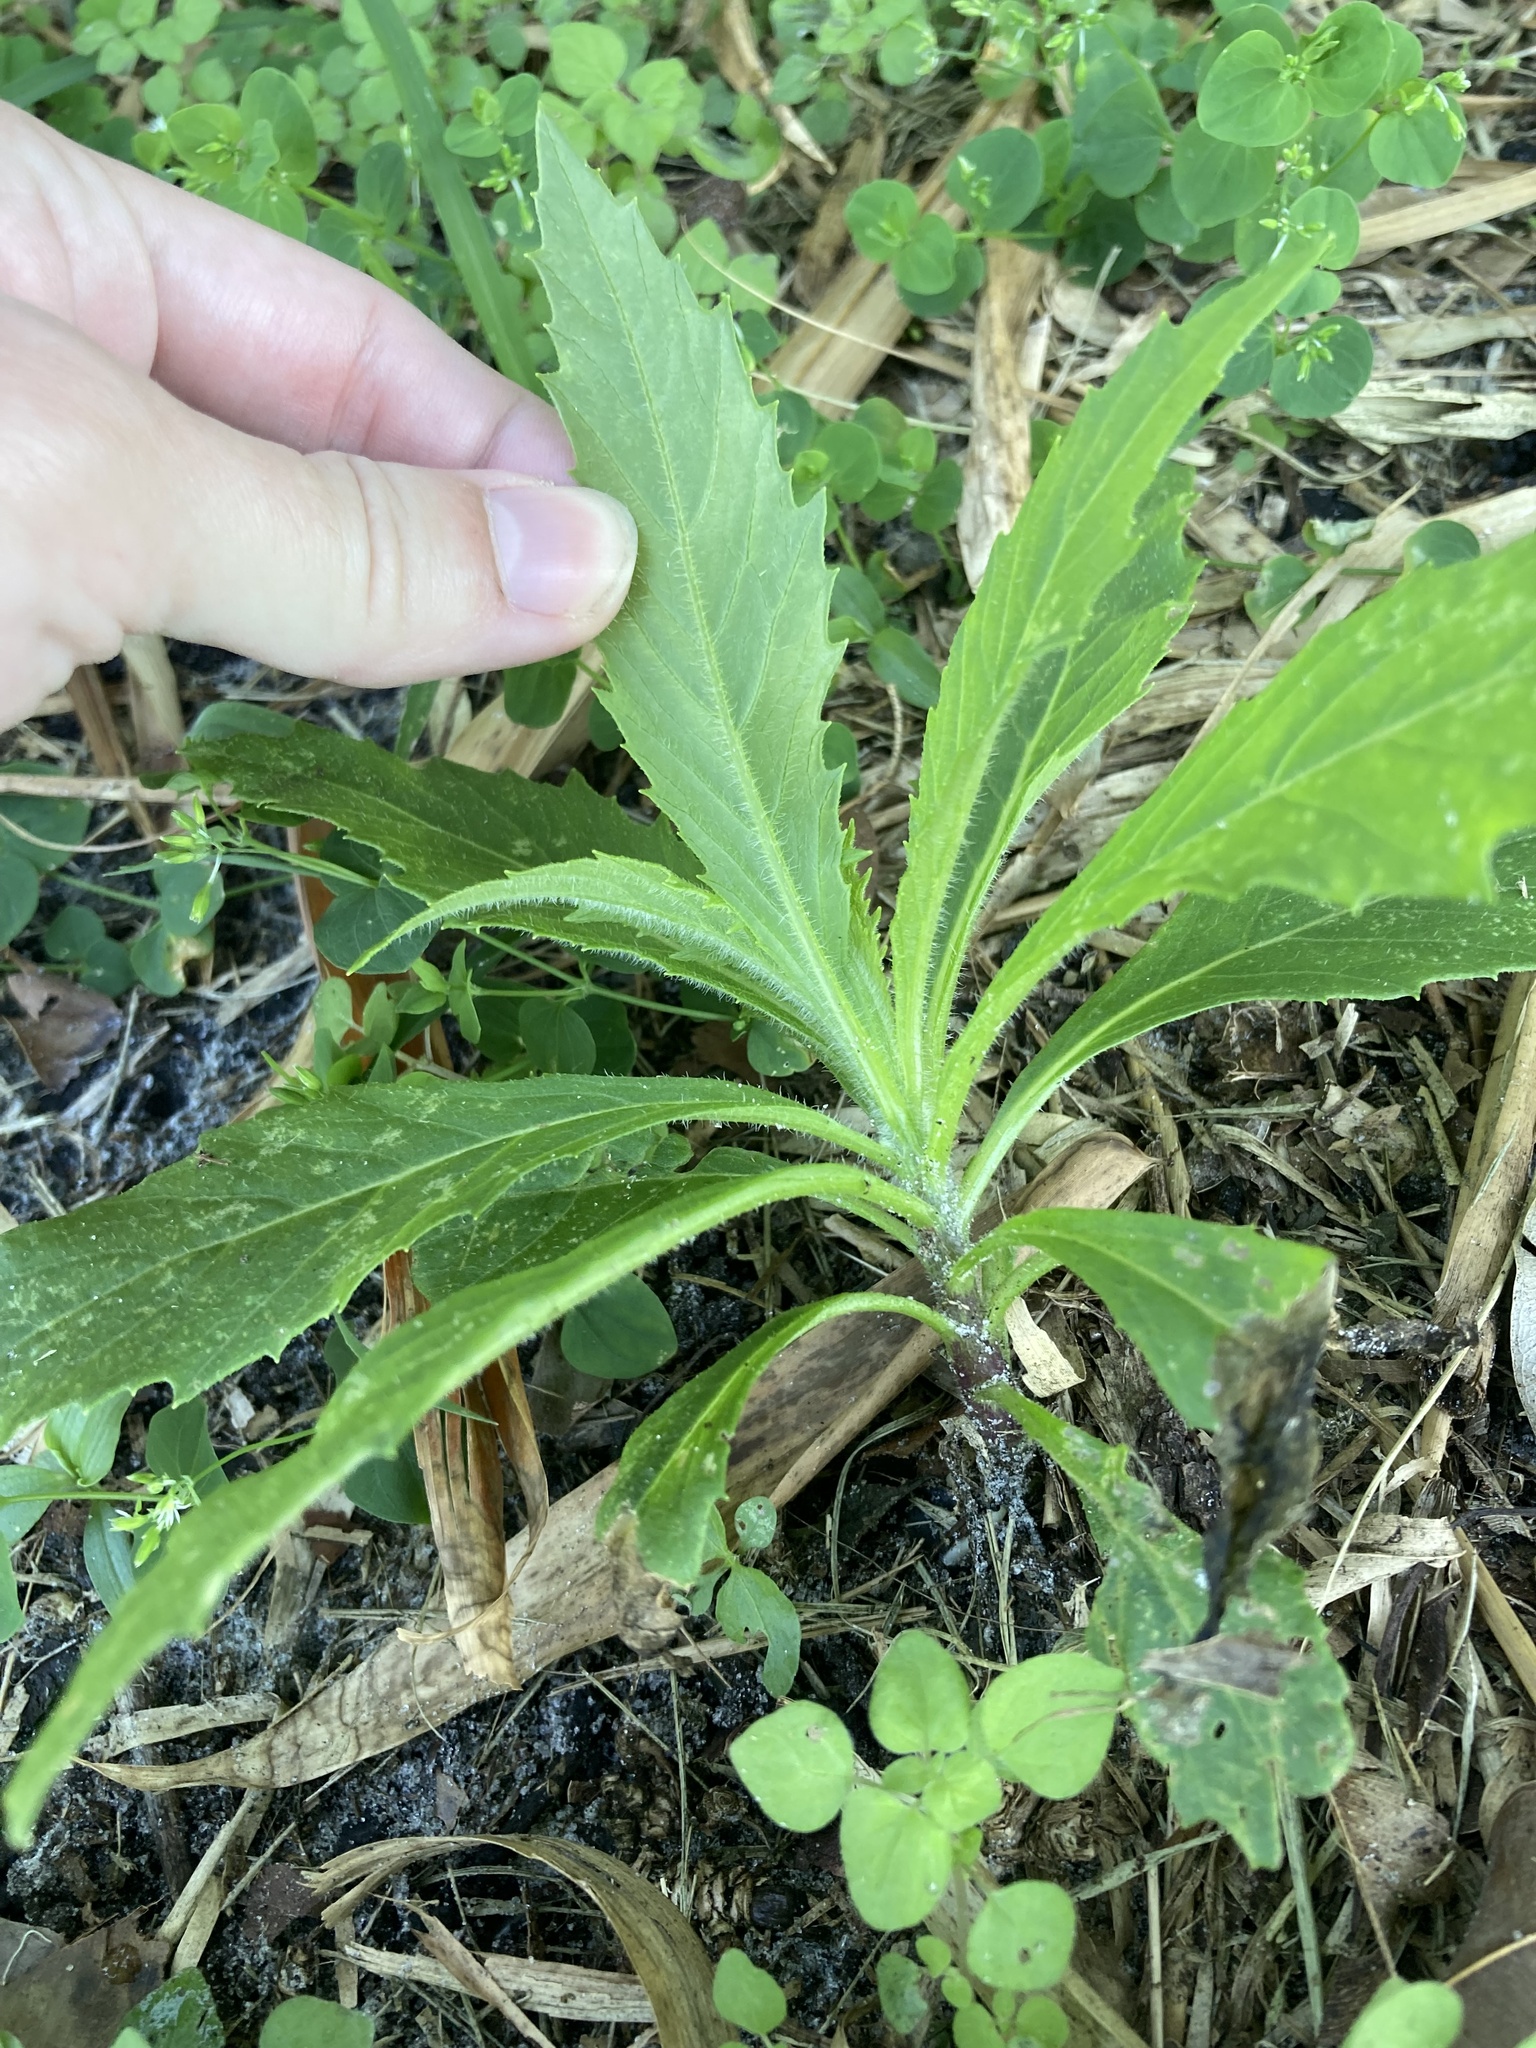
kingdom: Plantae
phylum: Tracheophyta
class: Magnoliopsida
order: Asterales
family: Asteraceae
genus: Erechtites
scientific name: Erechtites hieraciifolius
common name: American burnweed
